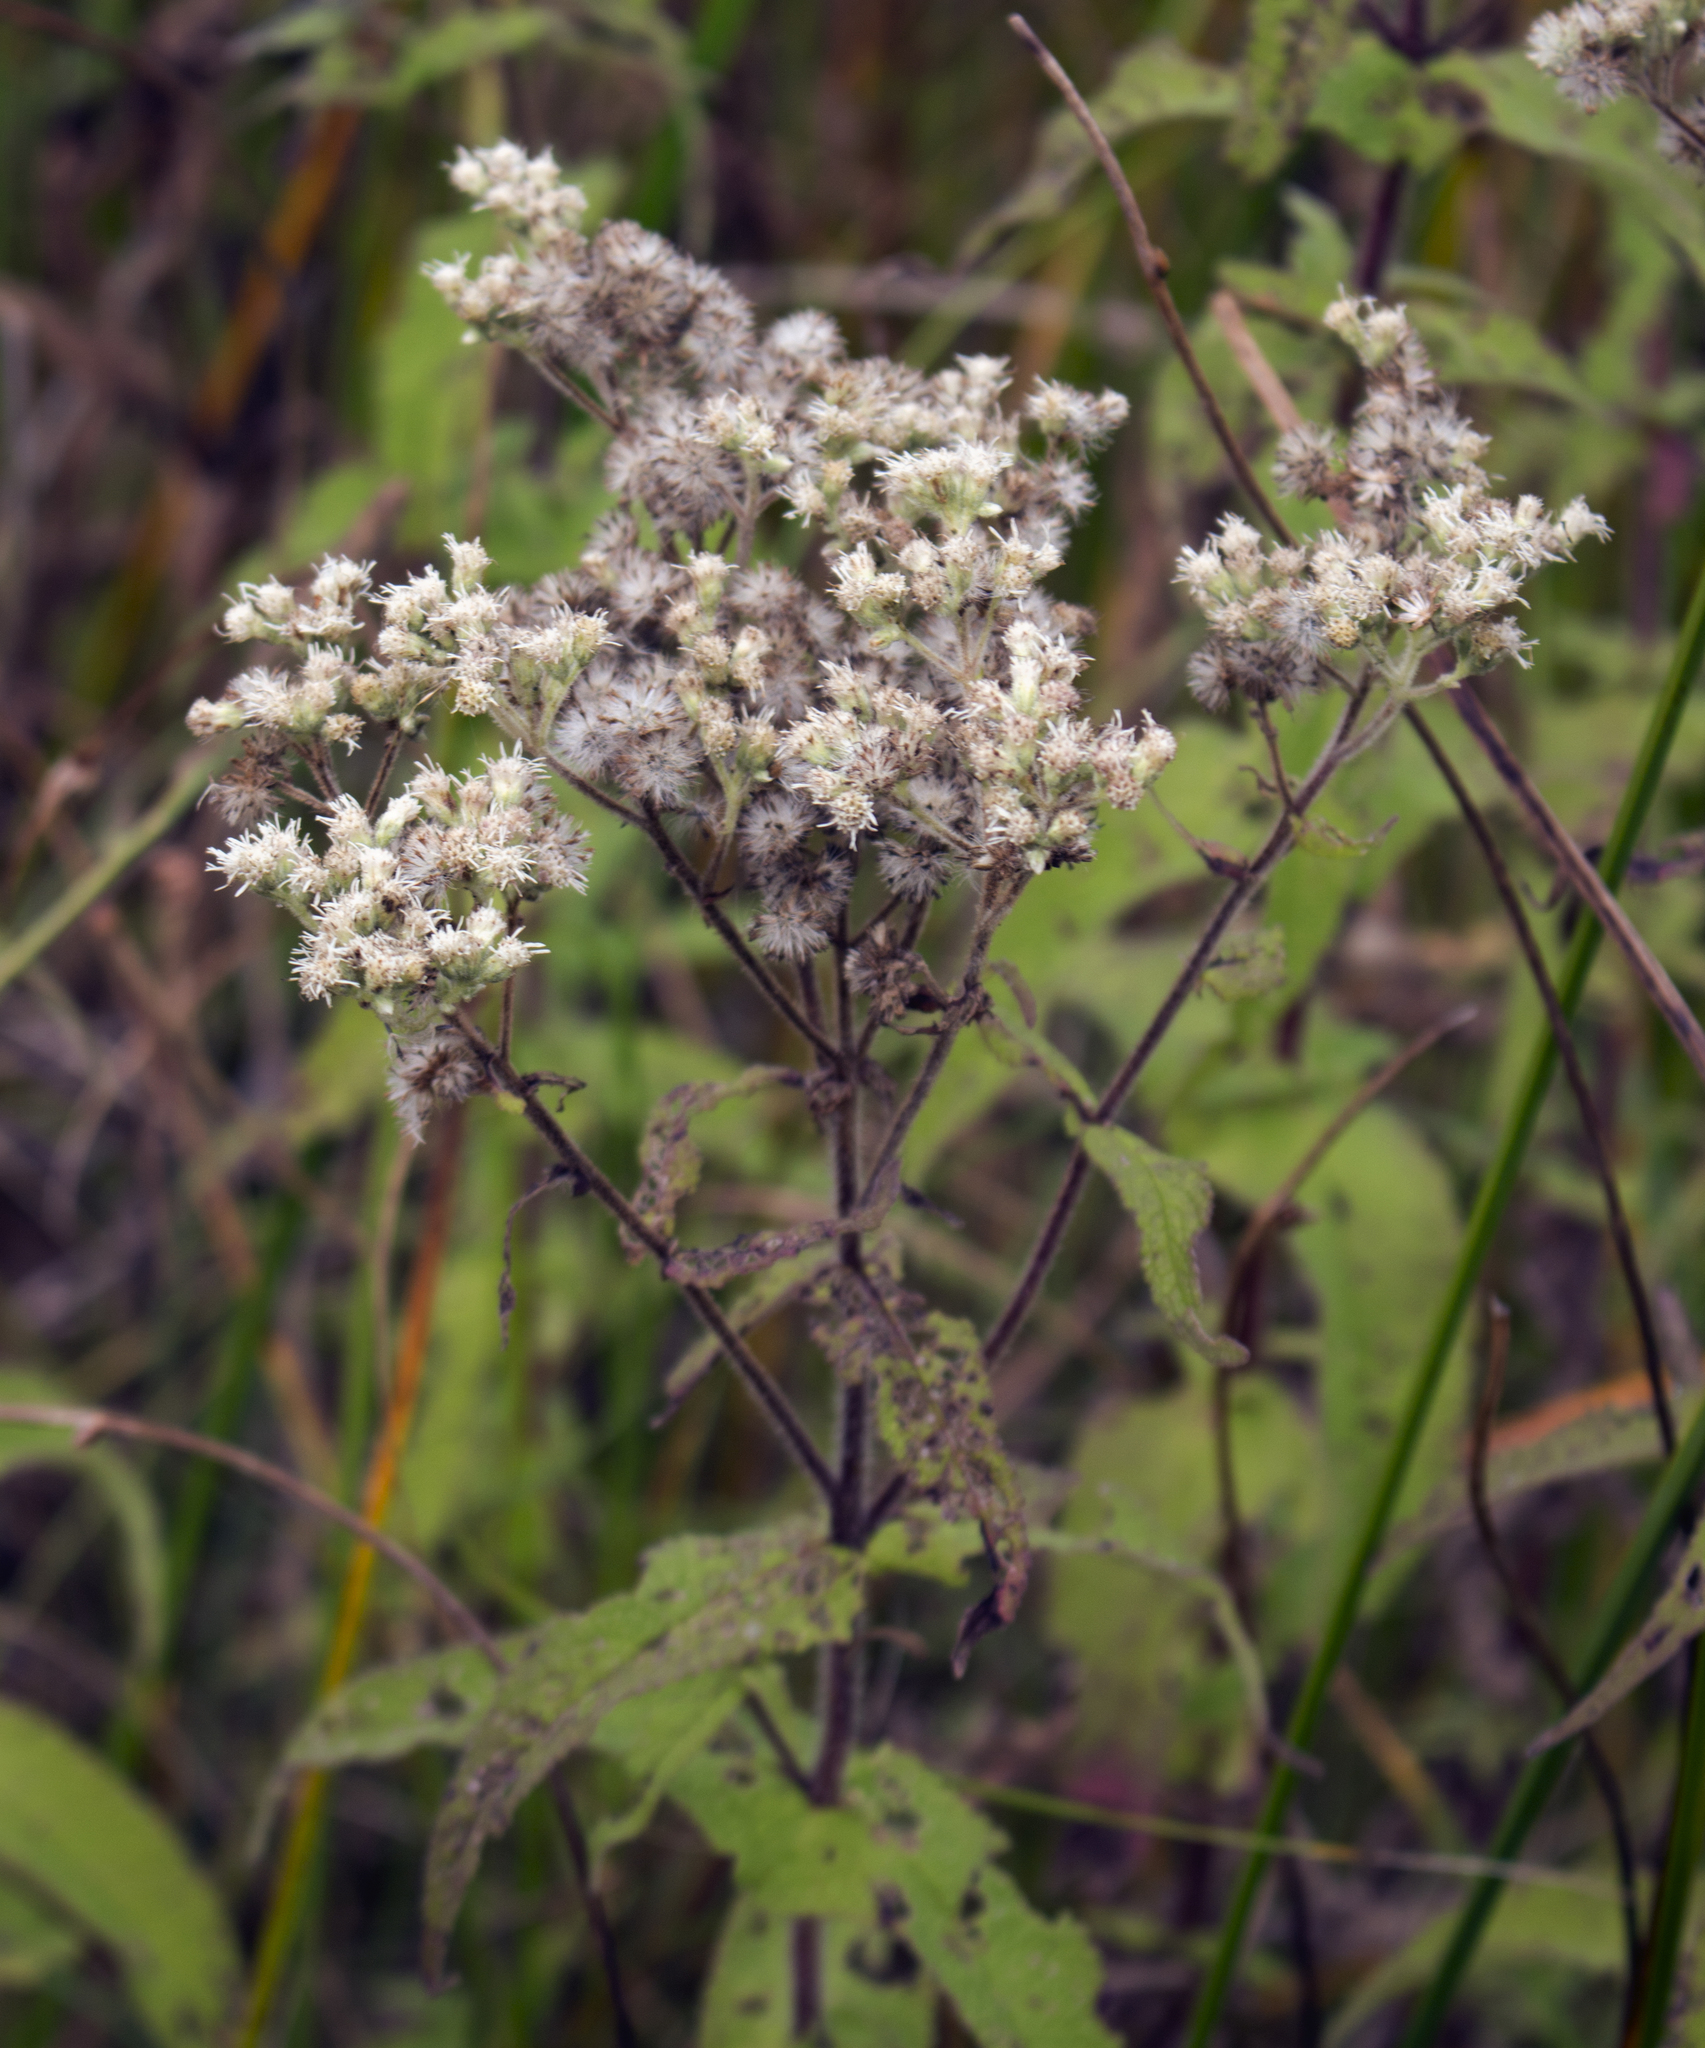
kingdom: Plantae
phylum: Tracheophyta
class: Magnoliopsida
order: Asterales
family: Asteraceae
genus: Eupatorium
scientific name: Eupatorium perfoliatum
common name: Boneset
